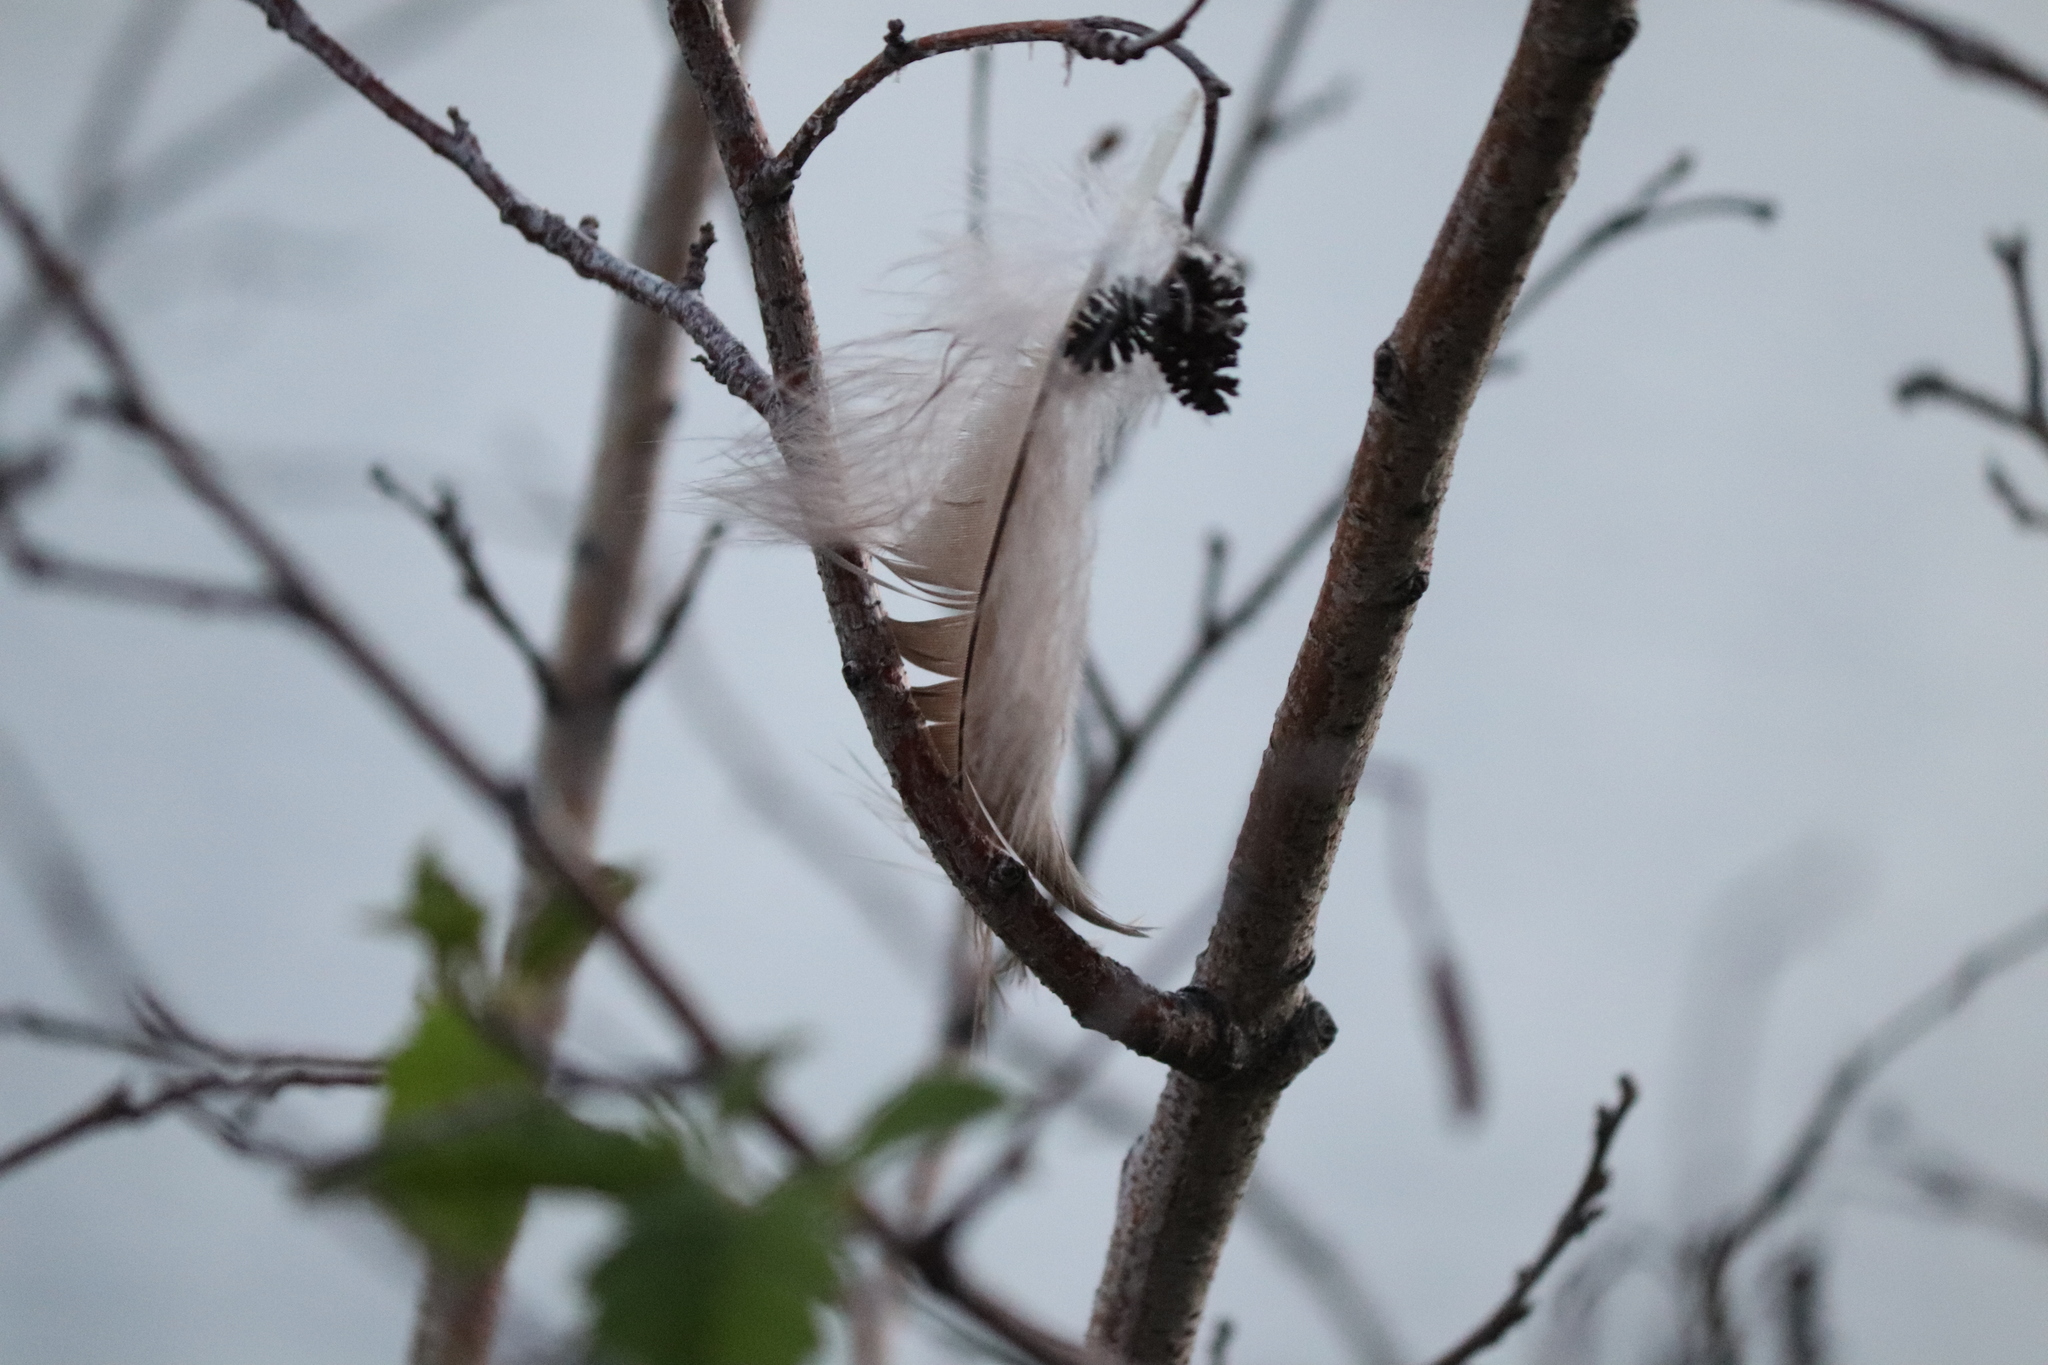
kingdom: Animalia
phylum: Chordata
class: Aves
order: Anseriformes
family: Anatidae
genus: Branta
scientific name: Branta canadensis
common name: Canada goose
